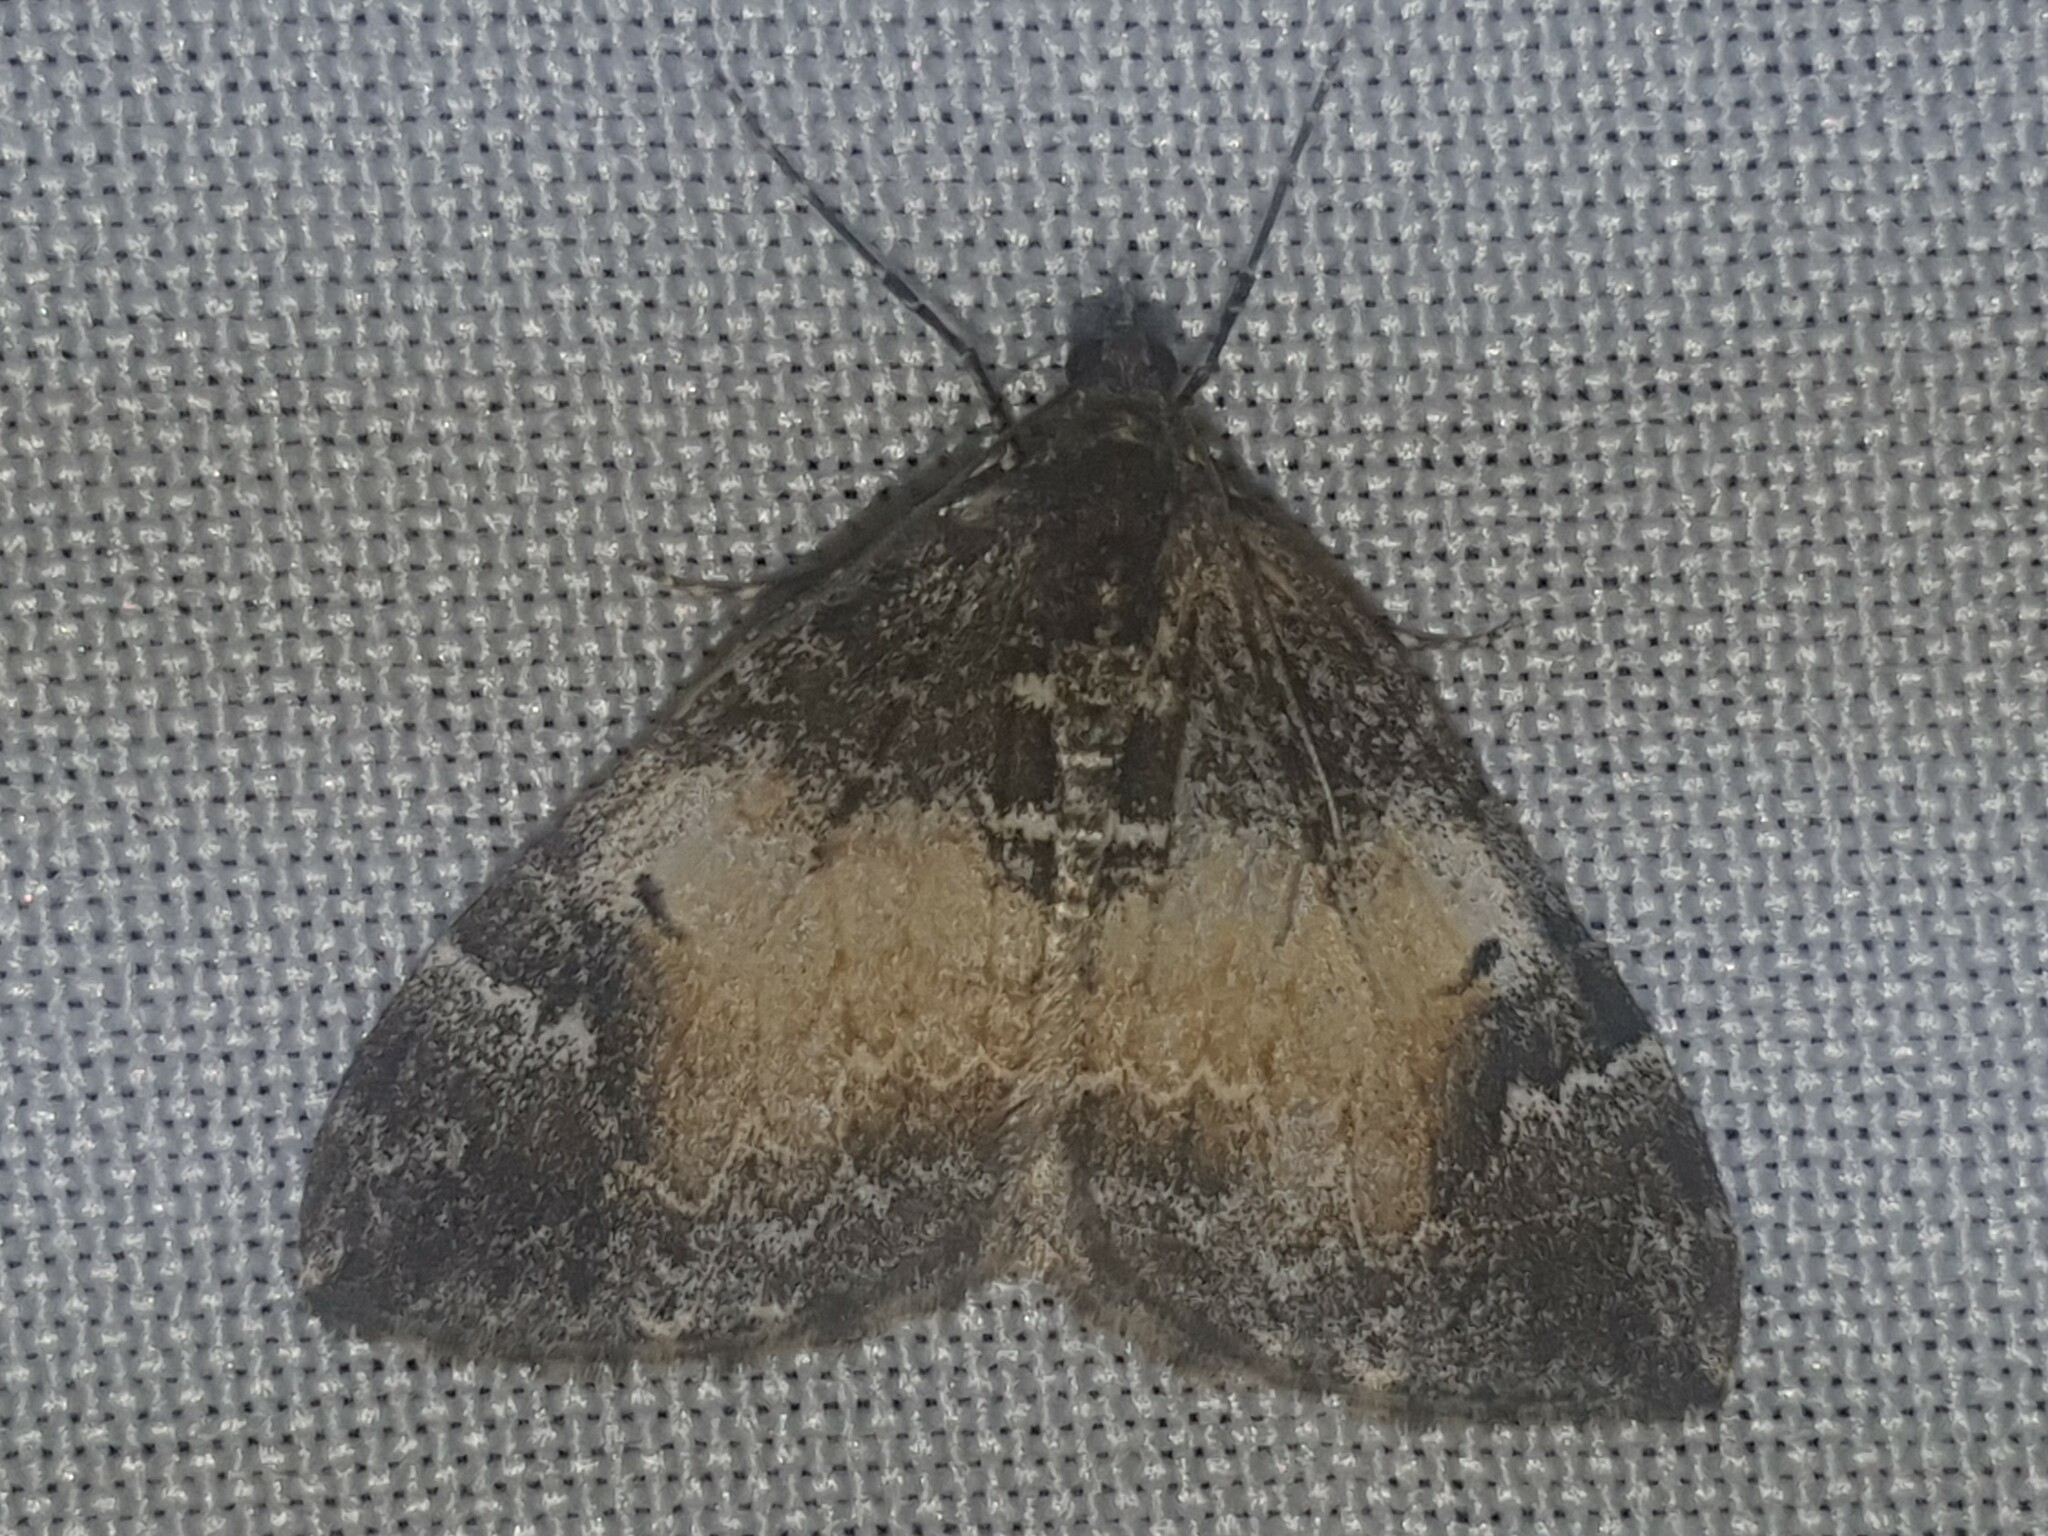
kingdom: Animalia
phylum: Arthropoda
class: Insecta
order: Lepidoptera
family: Geometridae
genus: Dysstroma
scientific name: Dysstroma truncata
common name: Common marbled carpet
